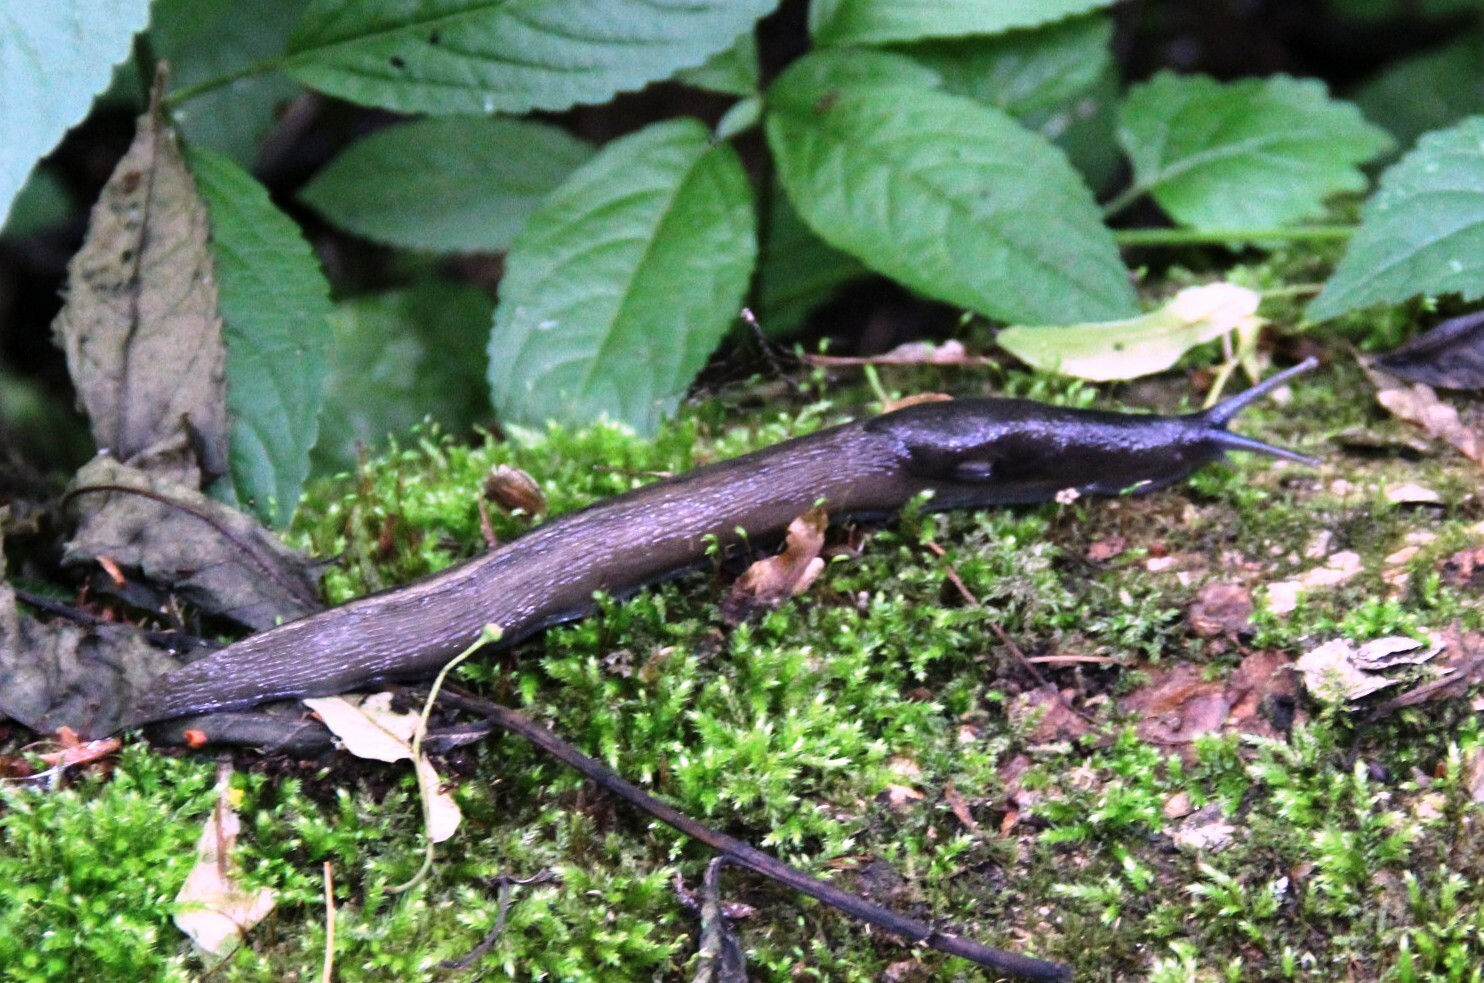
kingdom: Animalia
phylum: Mollusca
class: Gastropoda
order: Stylommatophora
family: Limacidae
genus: Limax
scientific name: Limax cinereoniger
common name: Ash-black slug
